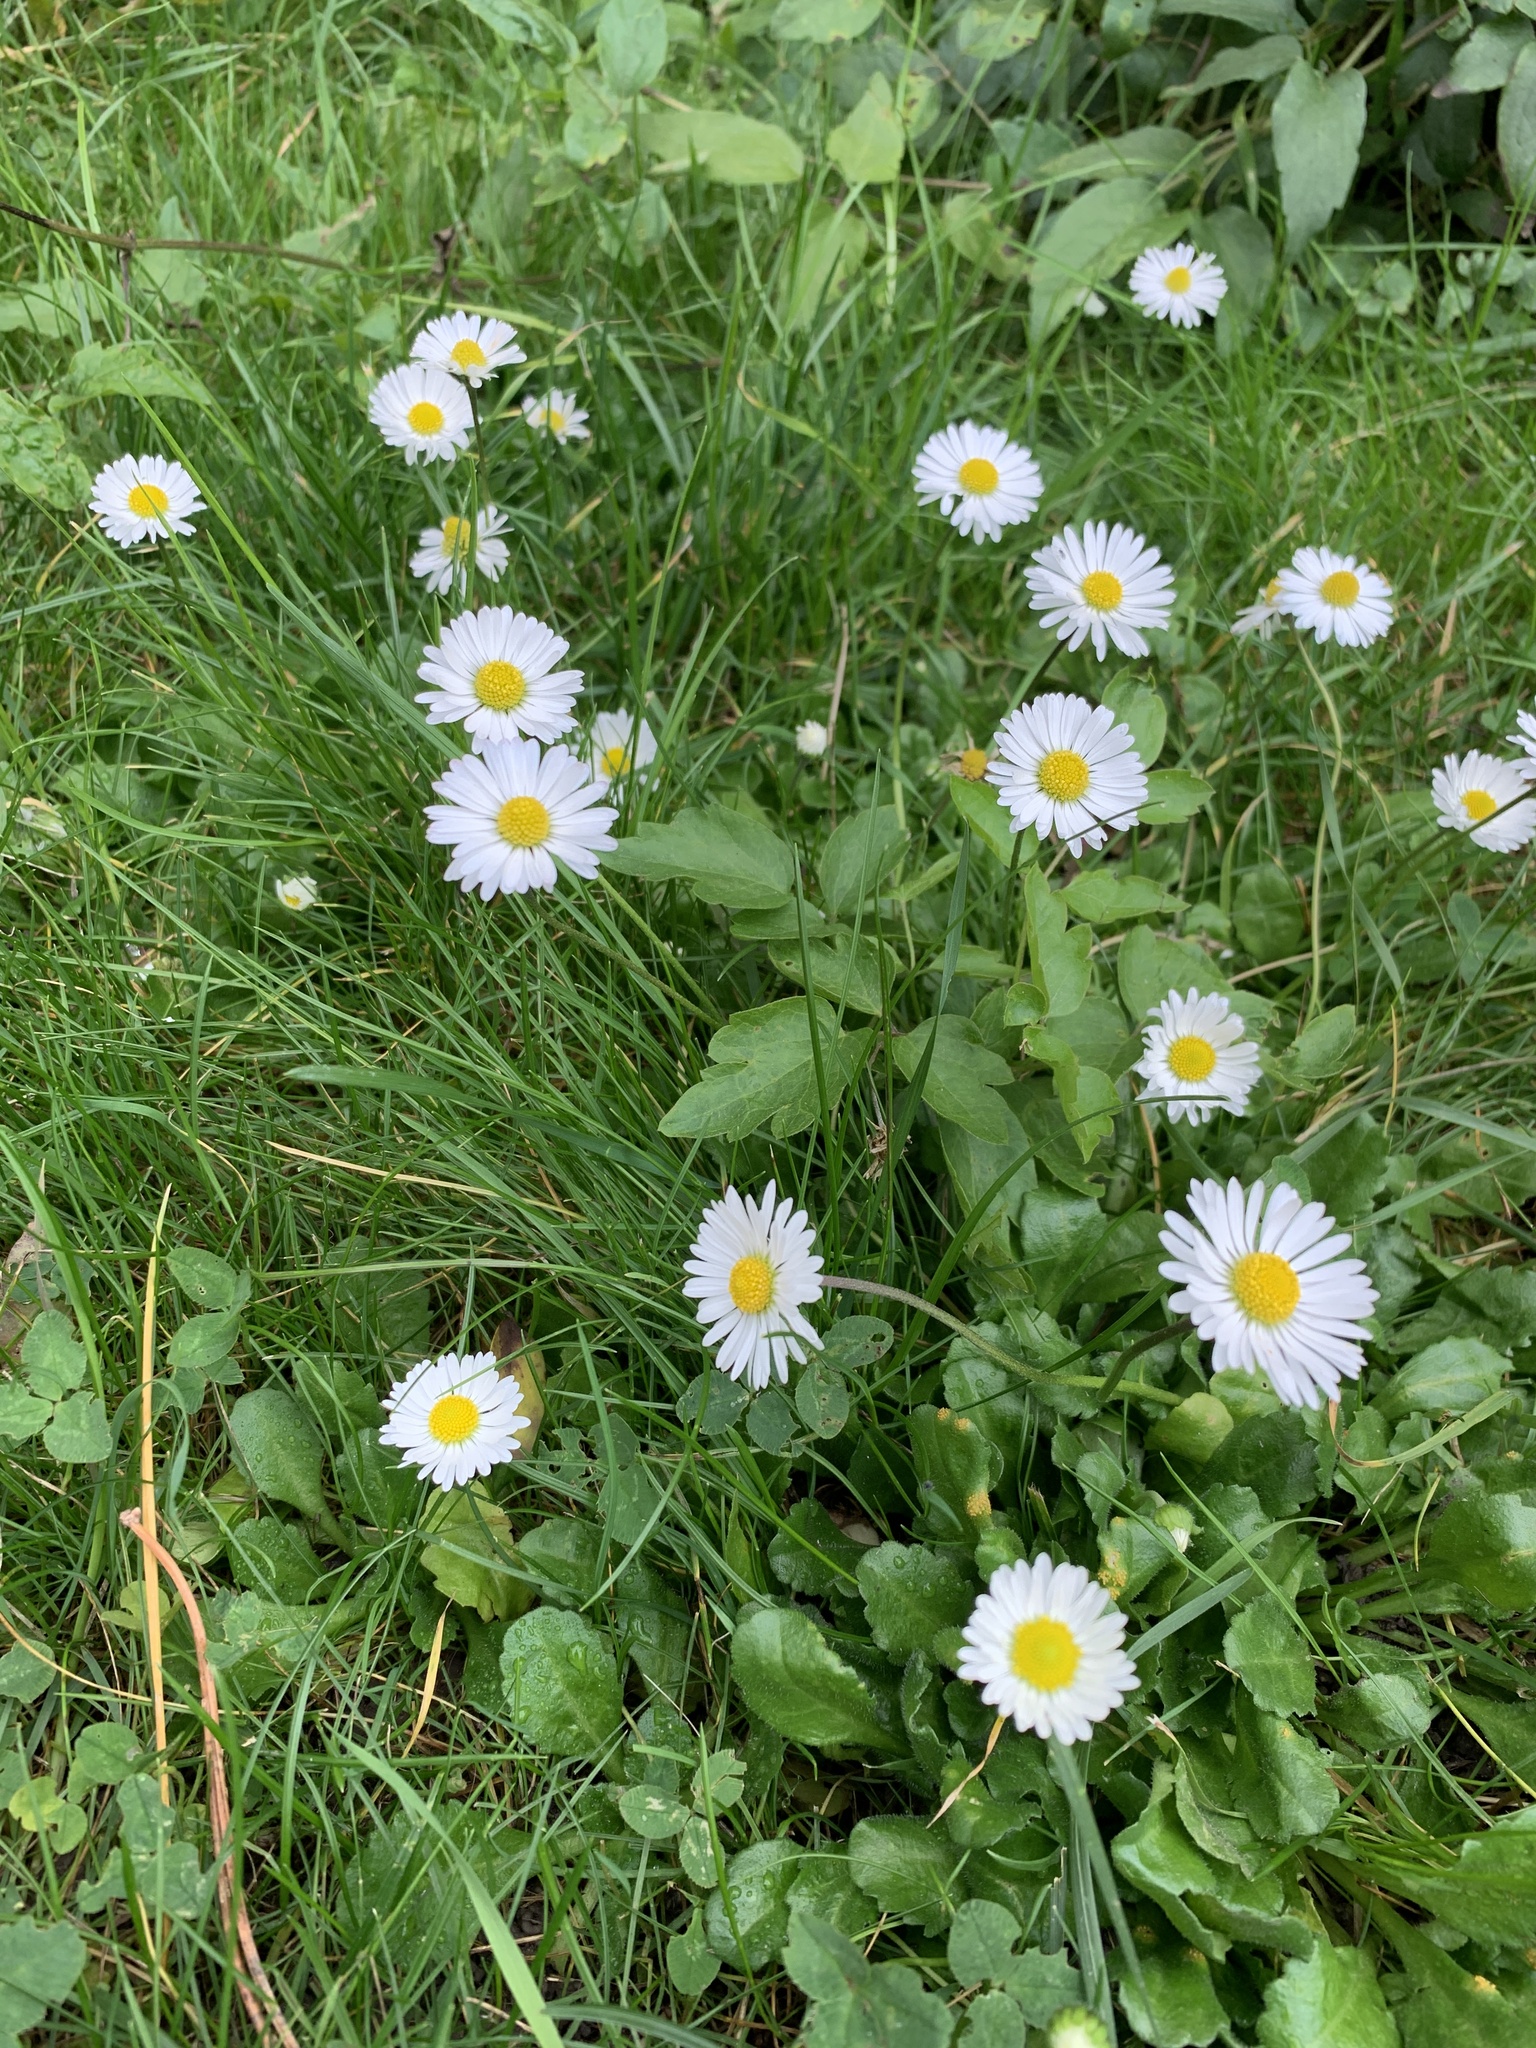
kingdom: Plantae
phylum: Tracheophyta
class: Magnoliopsida
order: Asterales
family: Asteraceae
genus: Bellis
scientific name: Bellis perennis
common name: Lawndaisy
